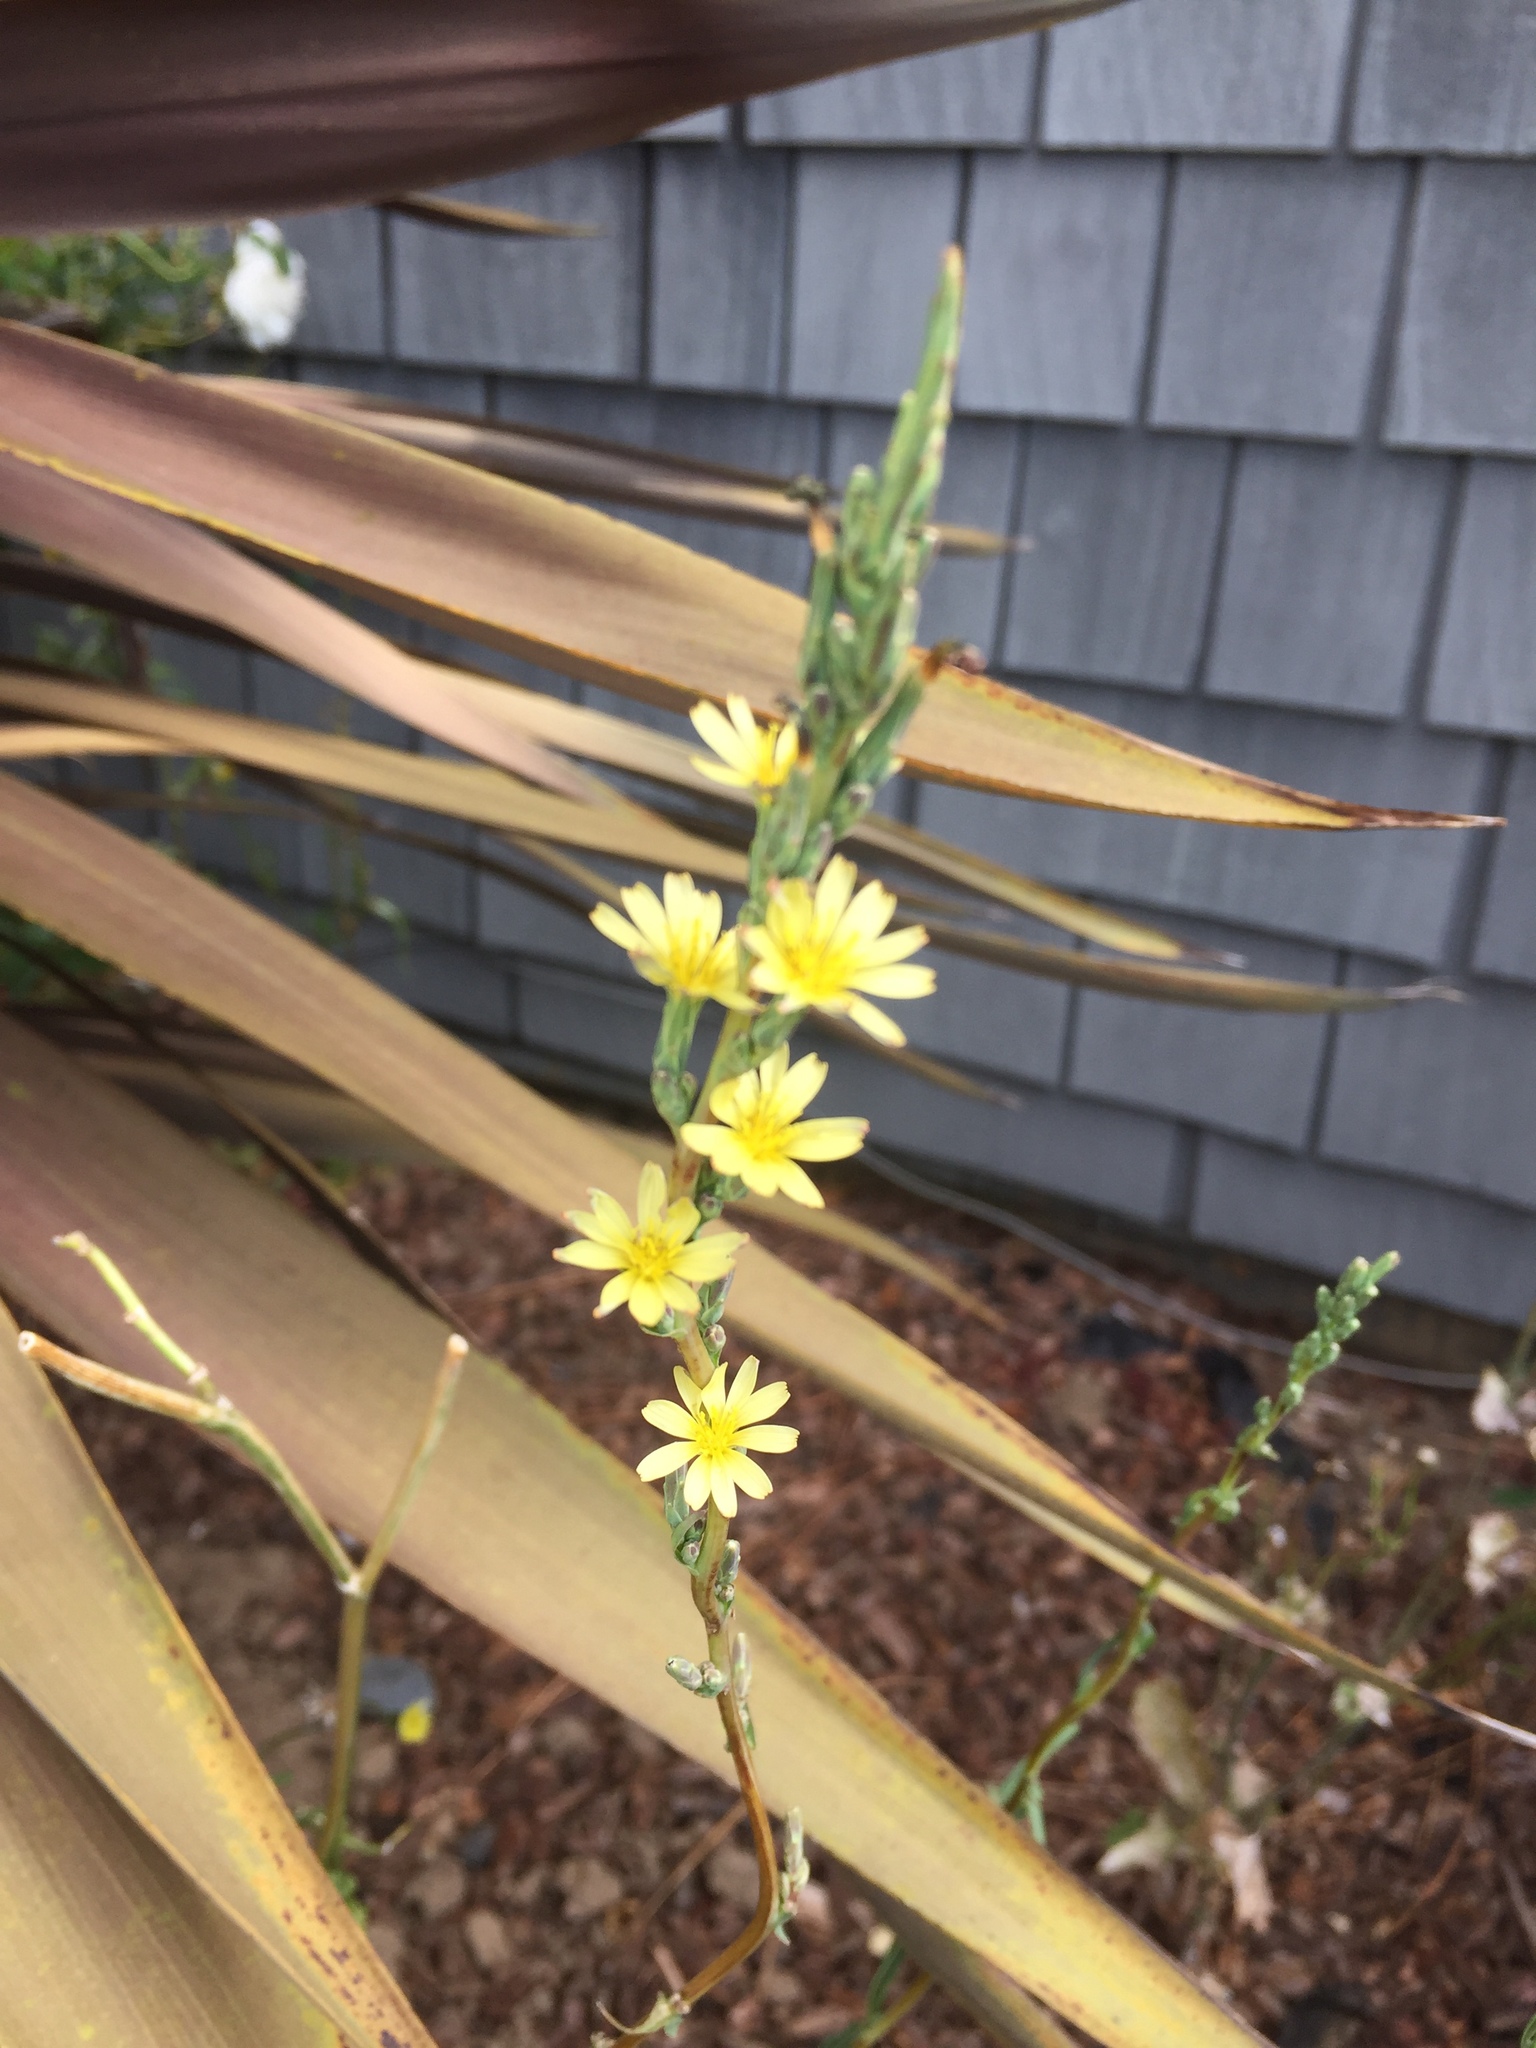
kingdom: Plantae
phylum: Tracheophyta
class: Magnoliopsida
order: Asterales
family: Asteraceae
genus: Lactuca
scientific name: Lactuca saligna
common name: Wild lettuce
